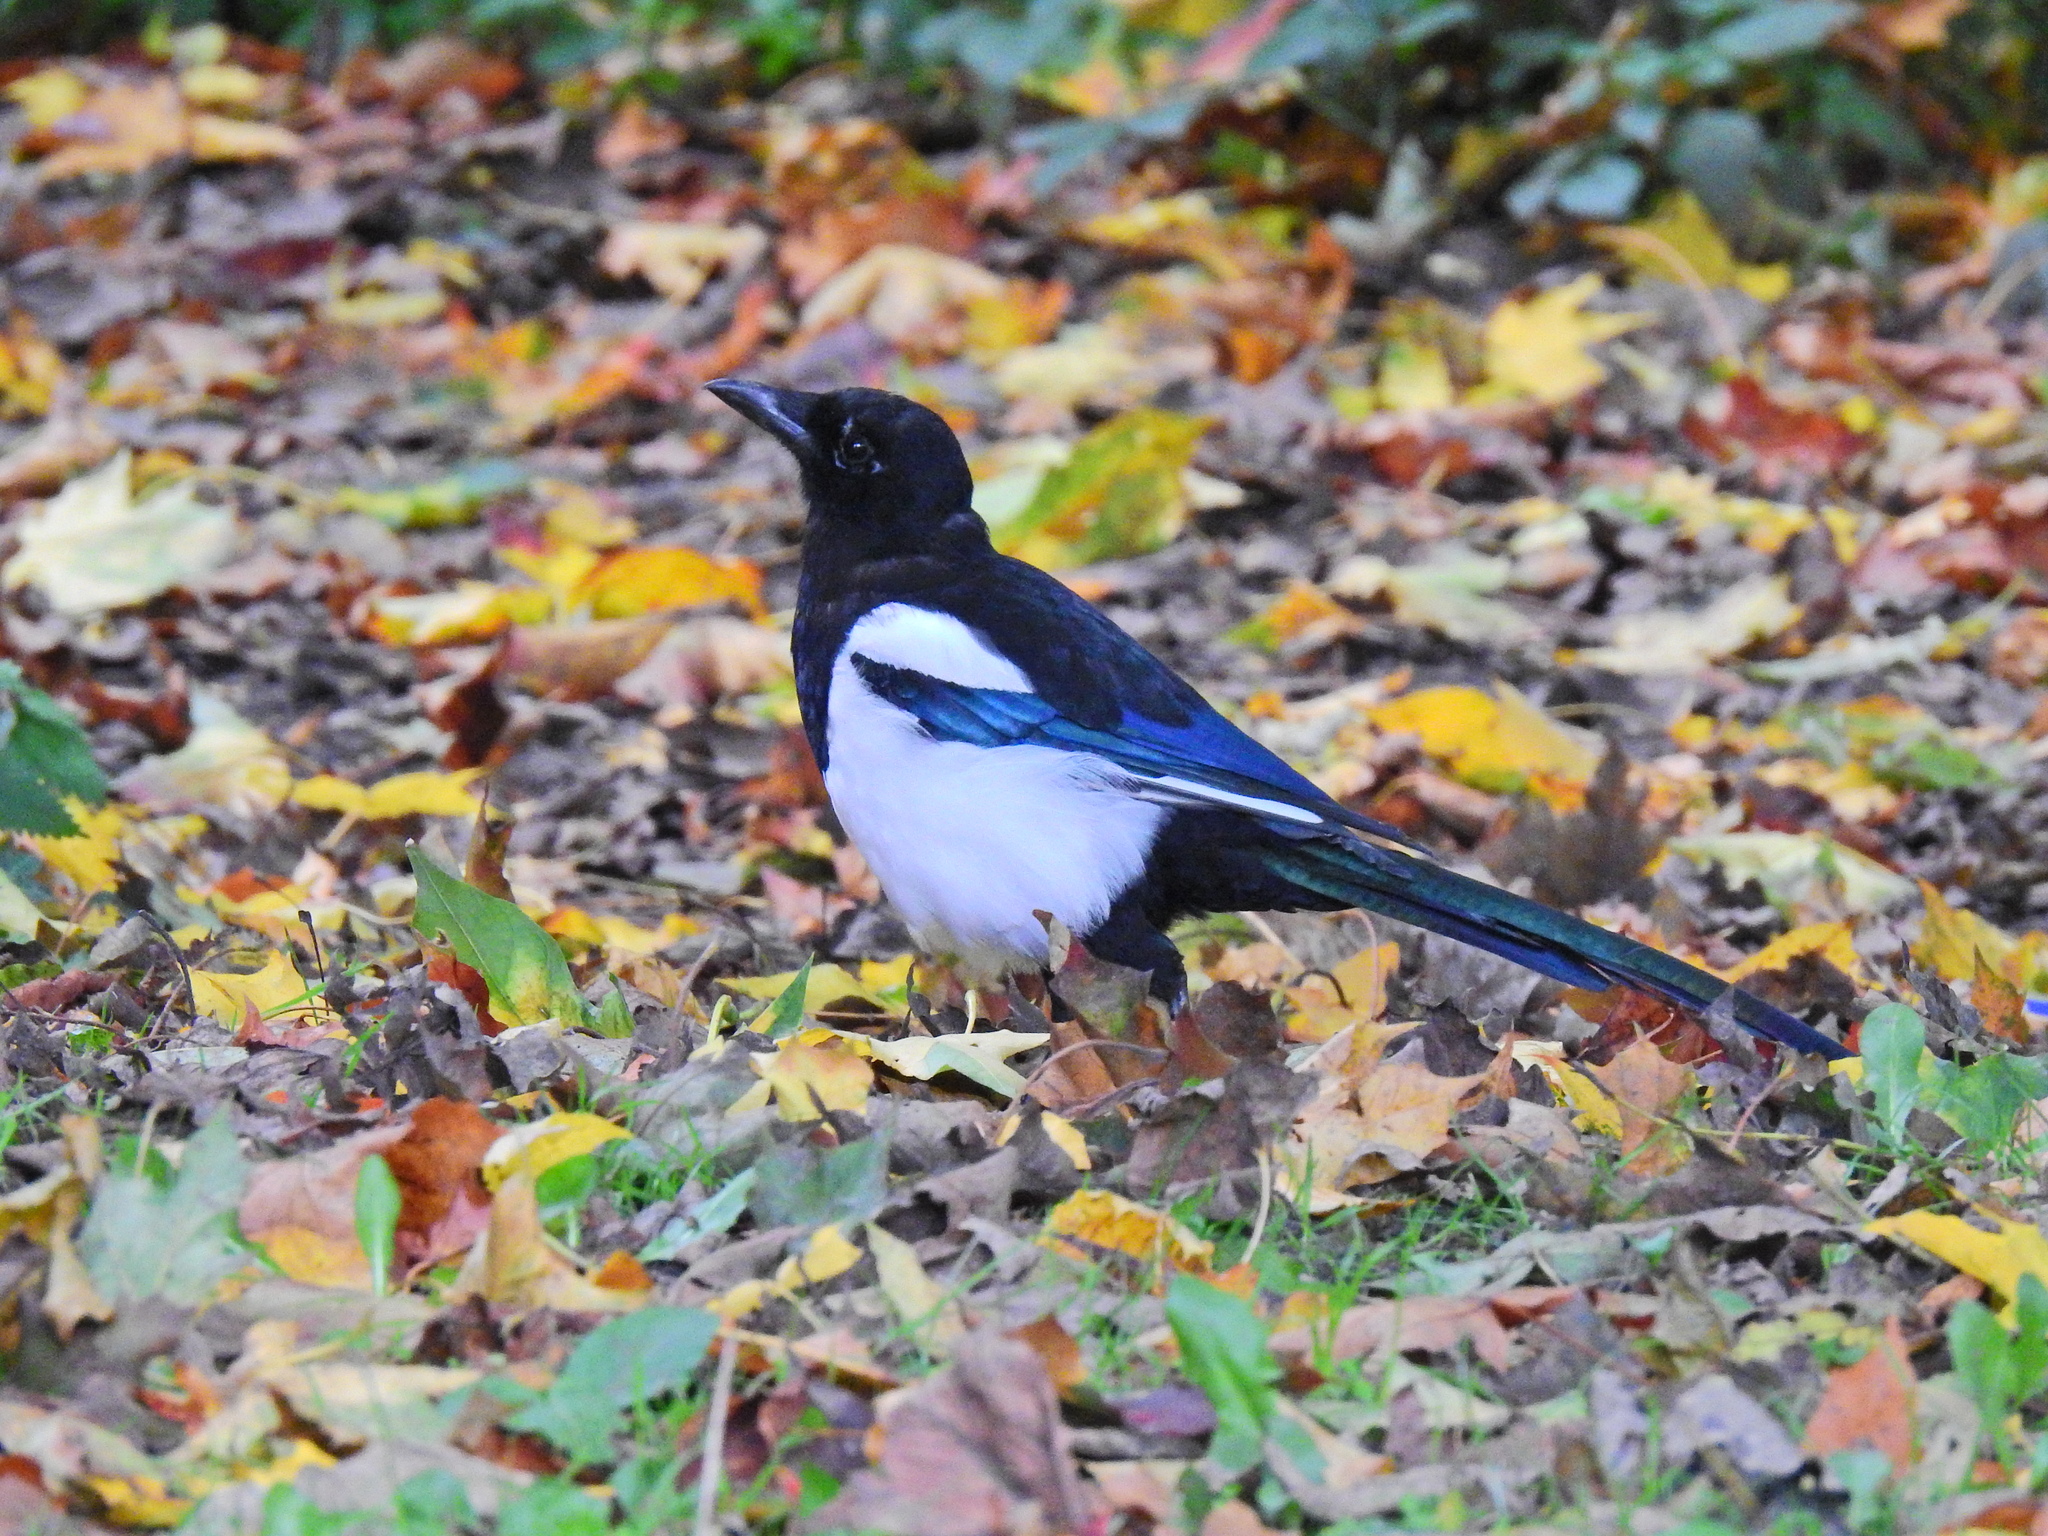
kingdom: Animalia
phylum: Chordata
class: Aves
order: Passeriformes
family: Corvidae
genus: Pica
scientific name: Pica pica
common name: Eurasian magpie
